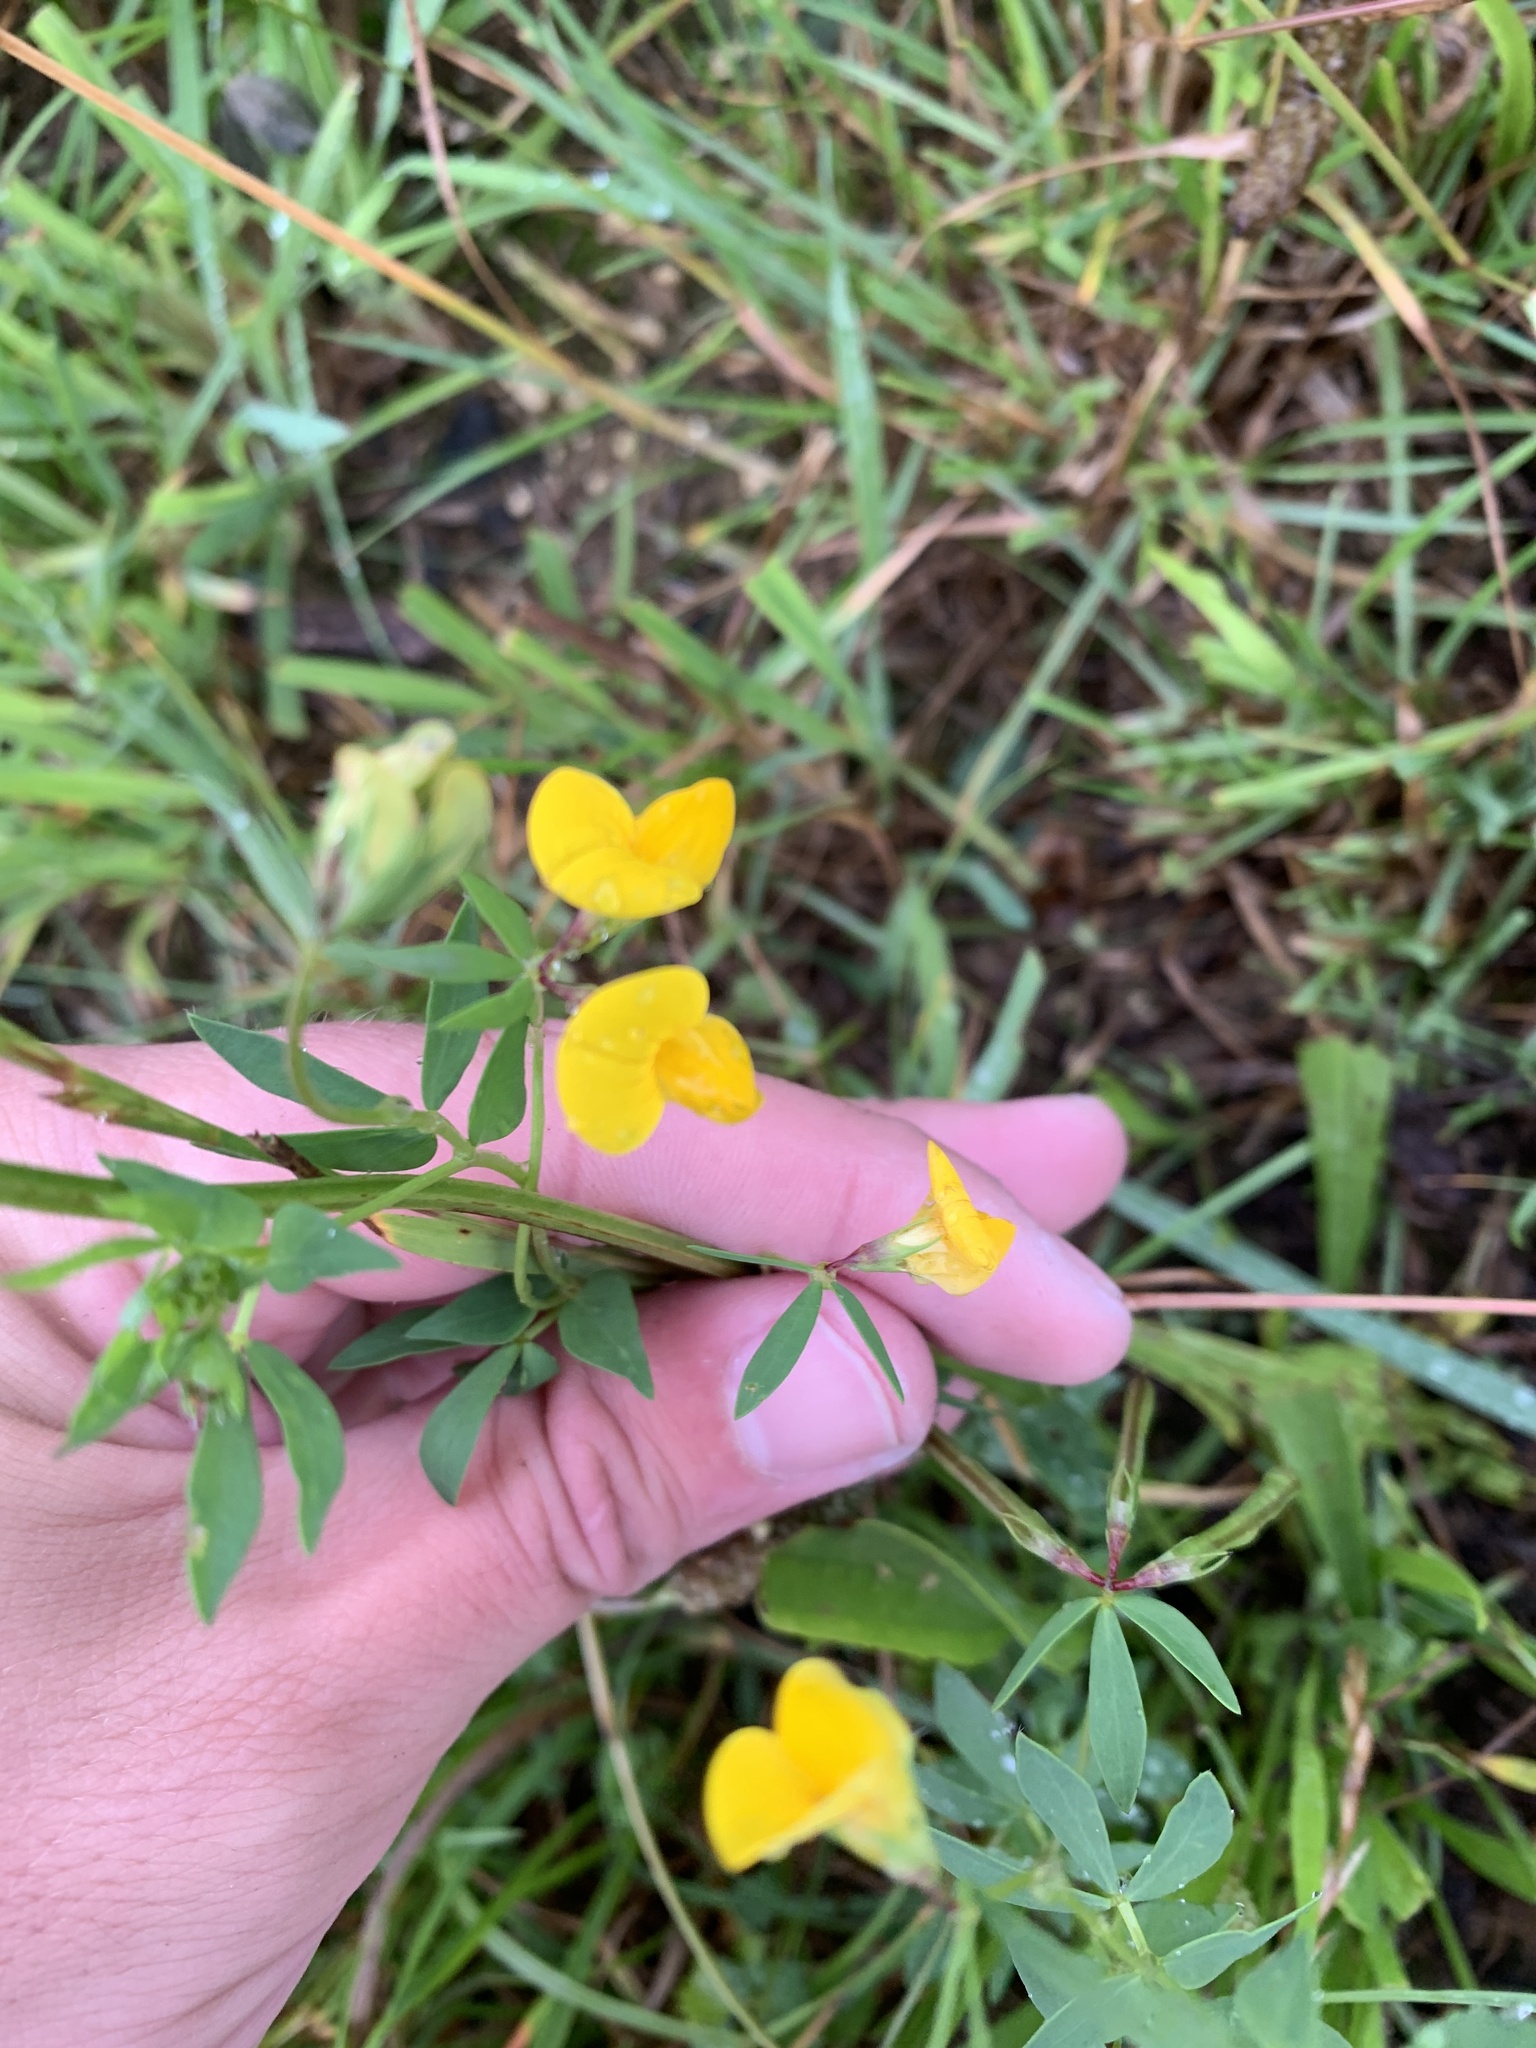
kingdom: Plantae
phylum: Tracheophyta
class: Magnoliopsida
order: Fabales
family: Fabaceae
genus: Lotus
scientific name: Lotus corniculatus
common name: Common bird's-foot-trefoil
